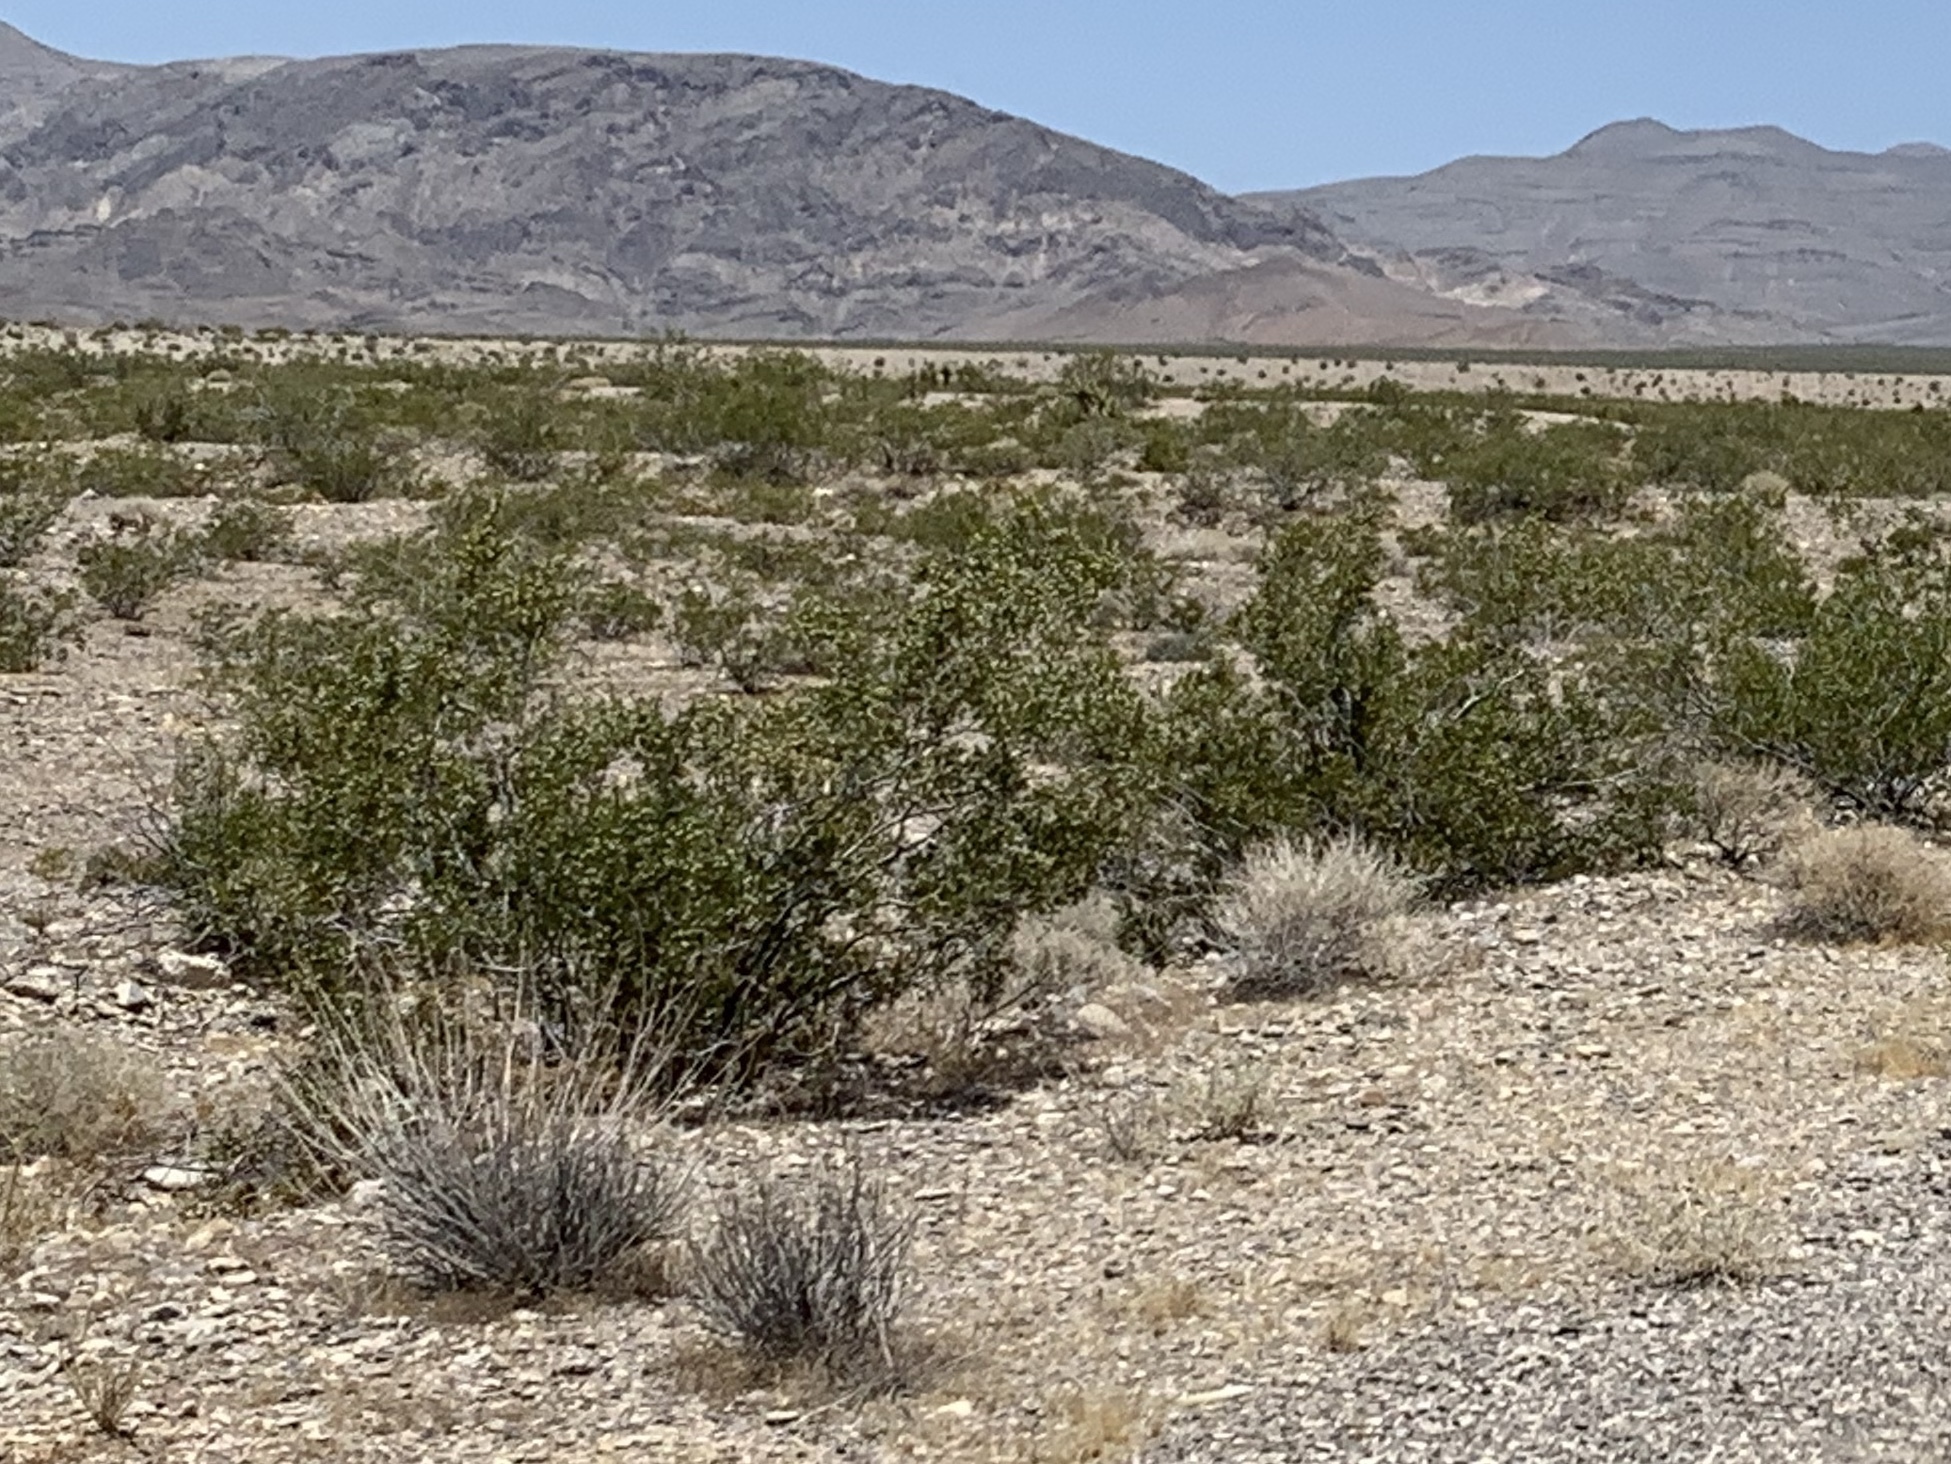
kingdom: Plantae
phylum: Tracheophyta
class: Magnoliopsida
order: Zygophyllales
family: Zygophyllaceae
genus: Larrea
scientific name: Larrea tridentata
